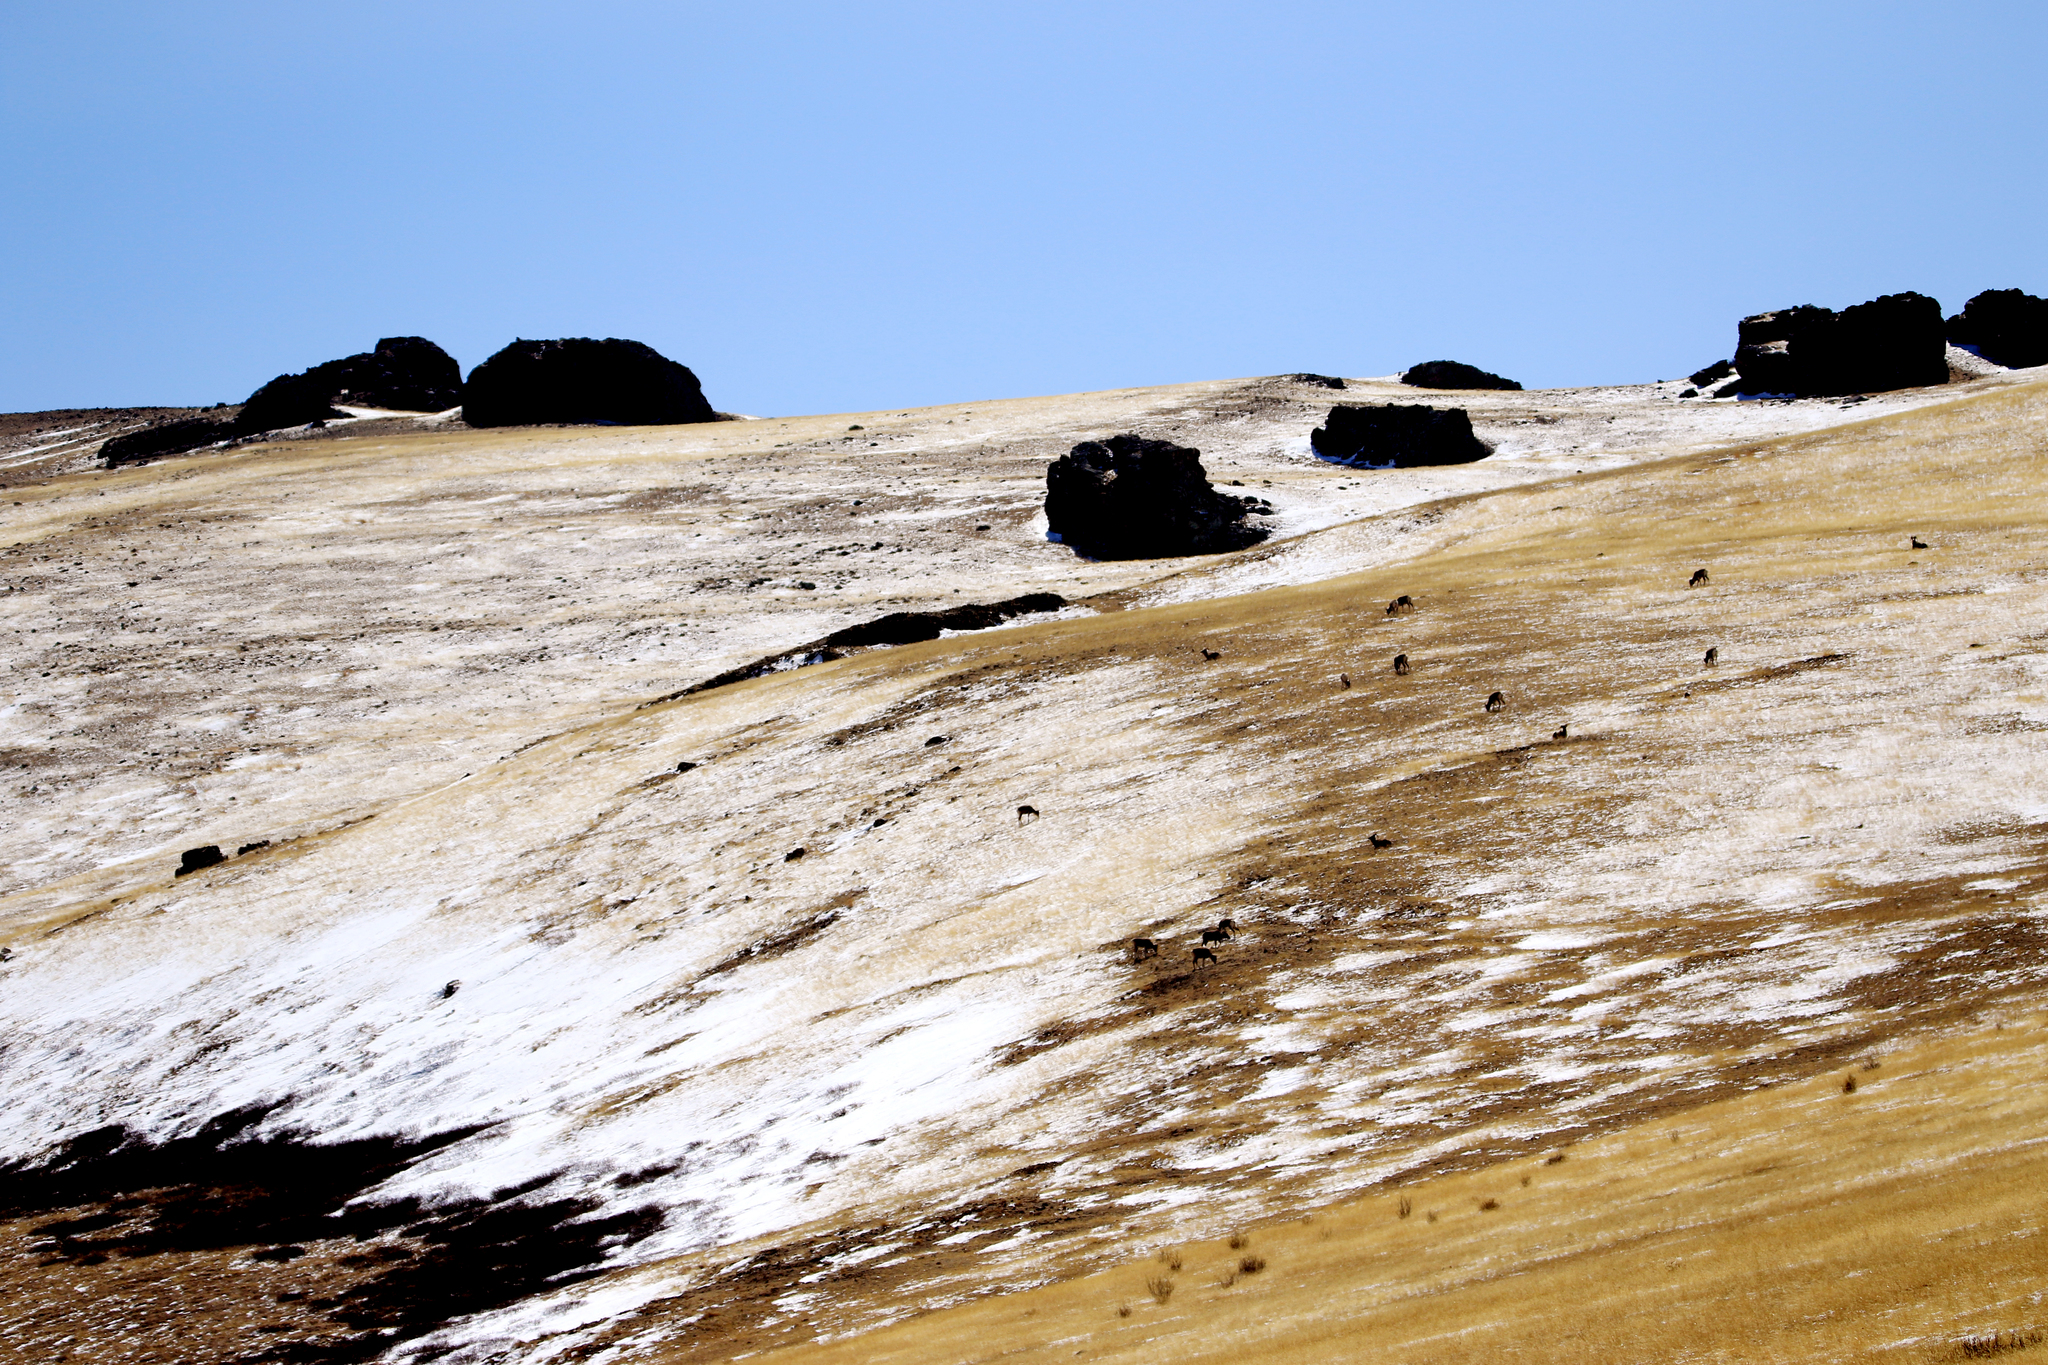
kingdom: Animalia
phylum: Chordata
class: Mammalia
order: Artiodactyla
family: Bovidae
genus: Ovis
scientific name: Ovis ammon
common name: Argali
